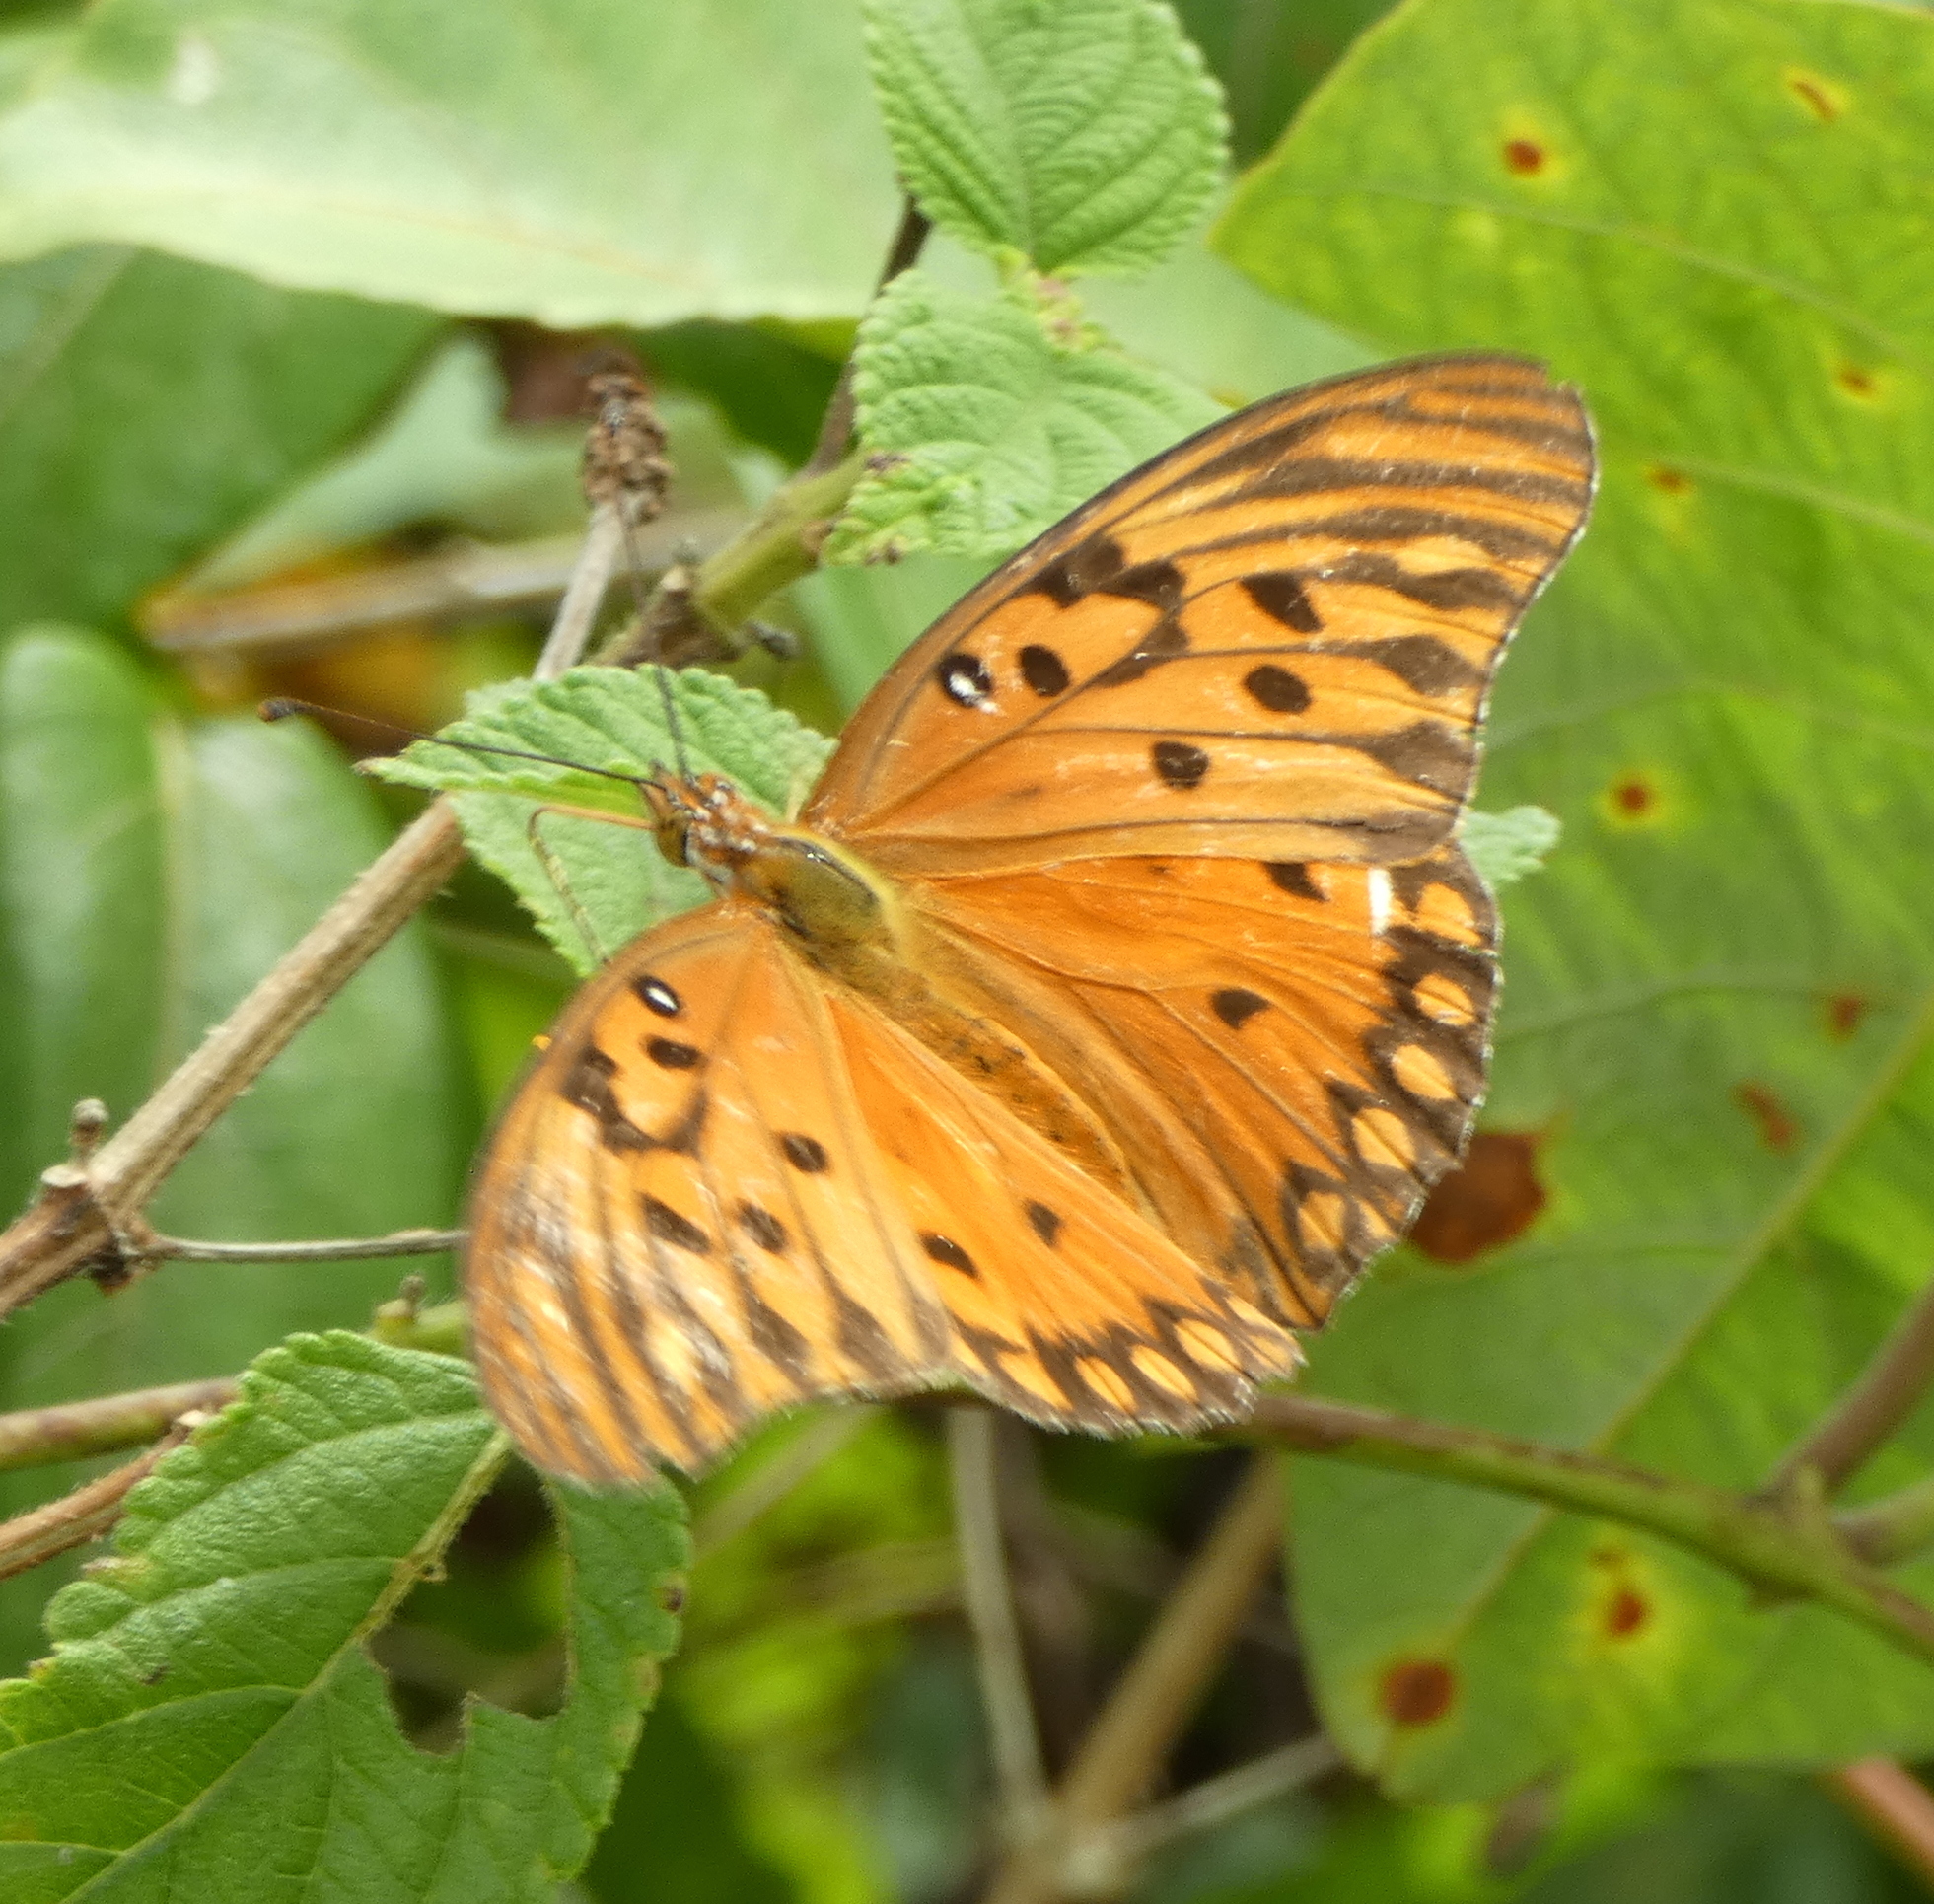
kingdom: Animalia
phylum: Arthropoda
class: Insecta
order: Lepidoptera
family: Nymphalidae
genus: Dione
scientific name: Dione vanillae
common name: Gulf fritillary
